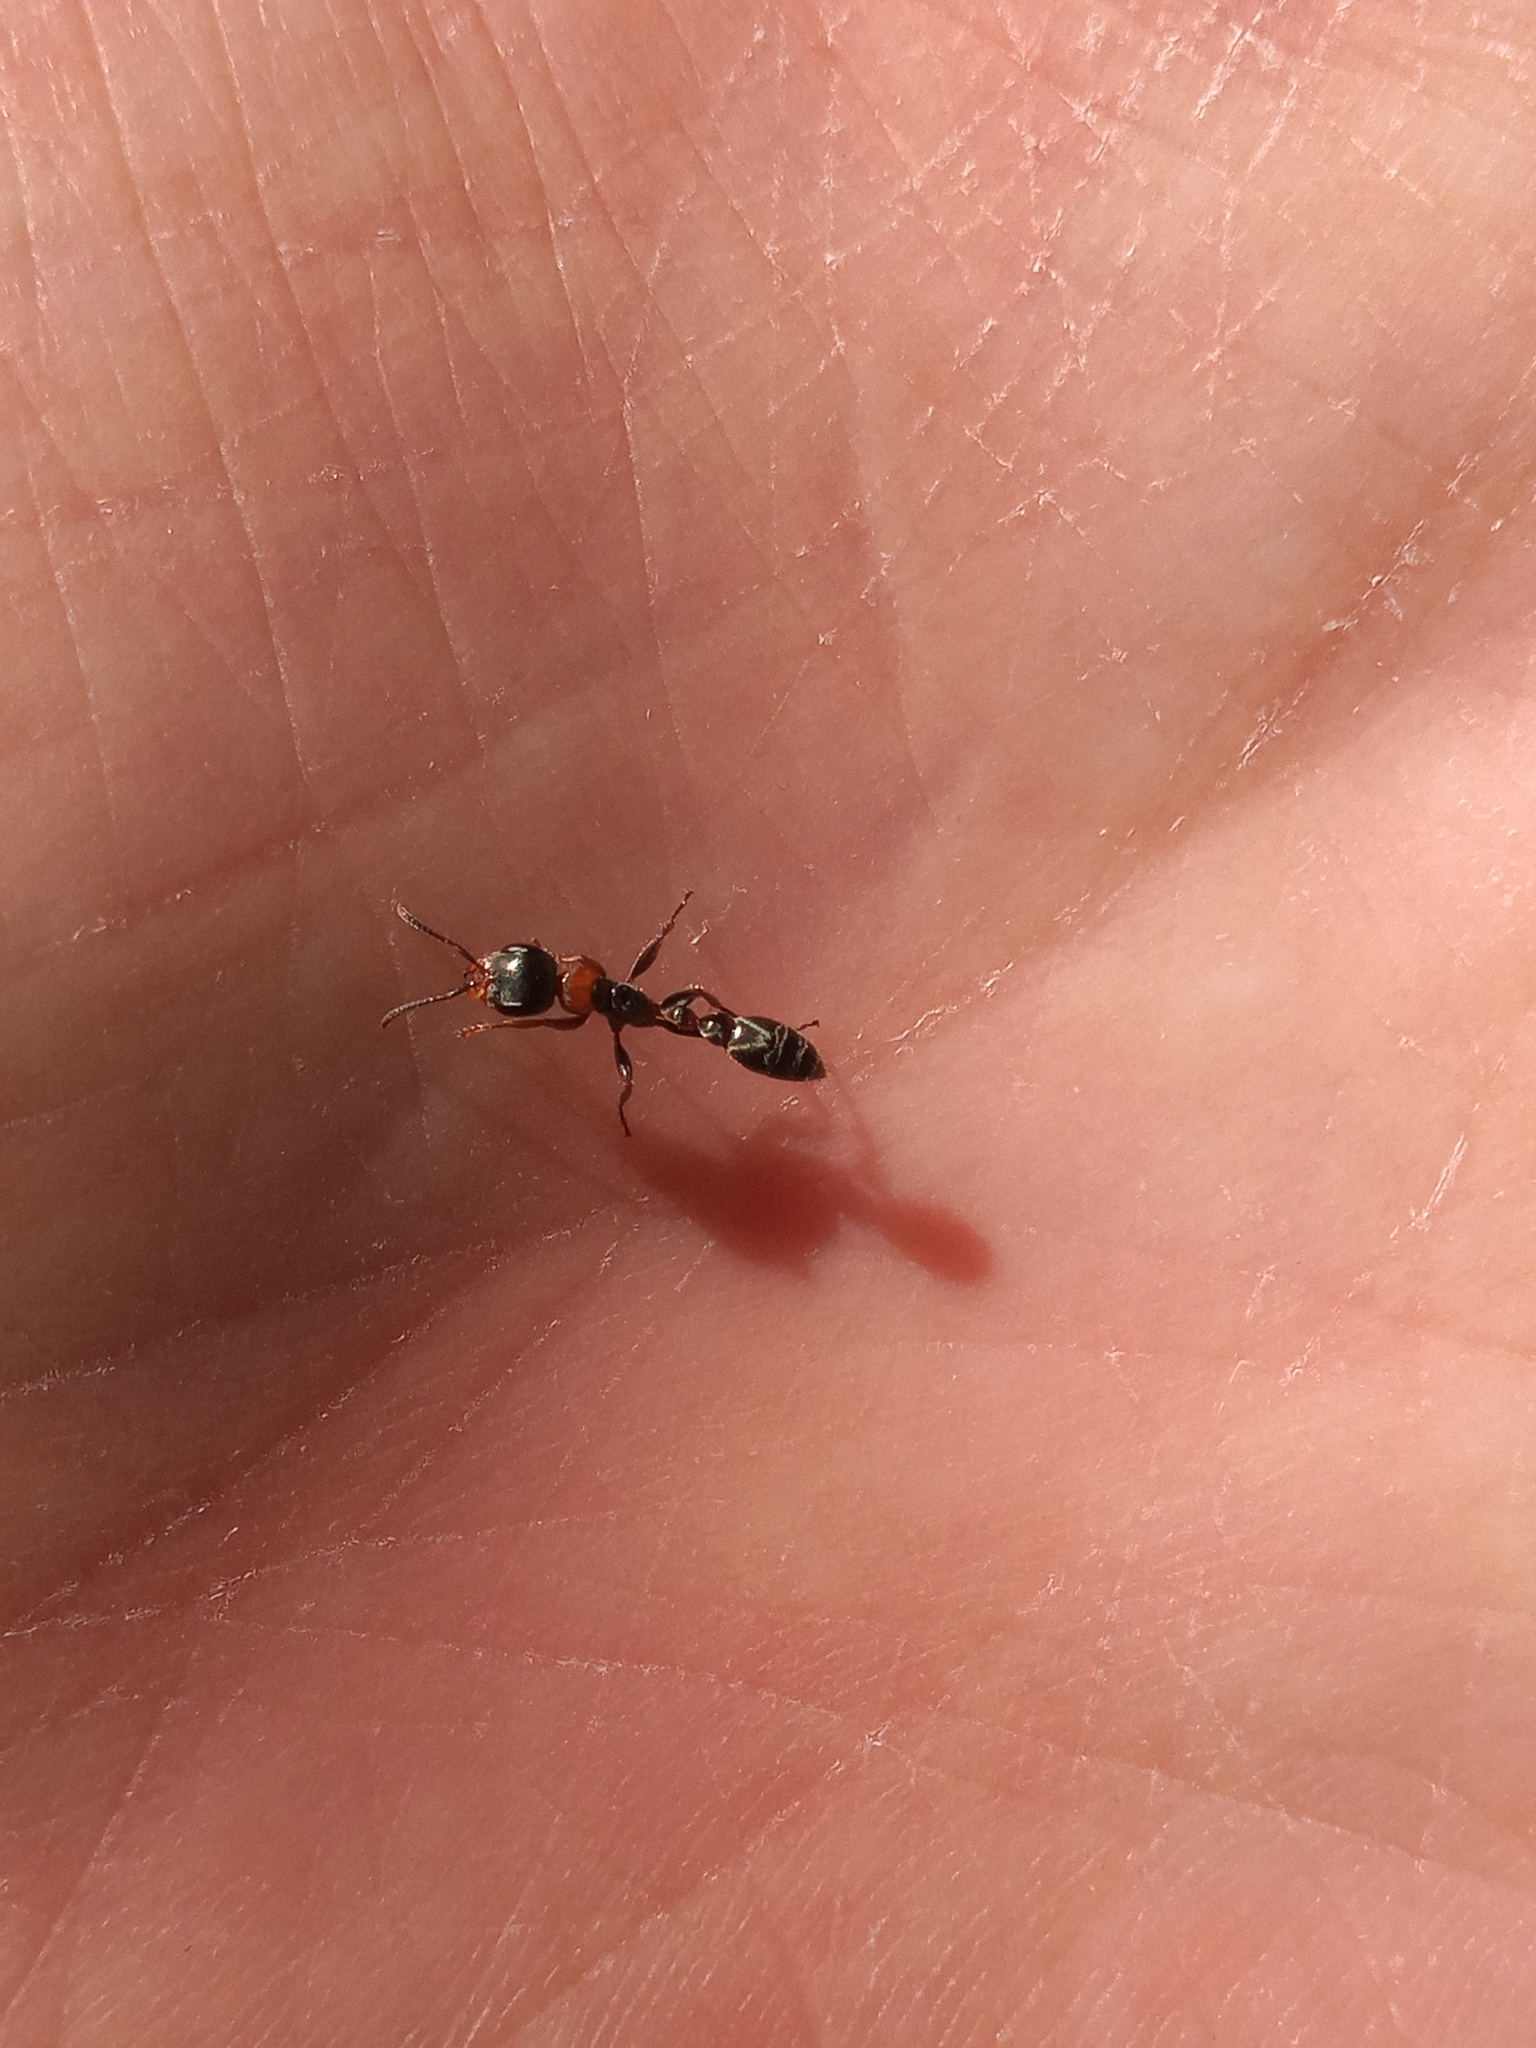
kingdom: Animalia
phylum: Arthropoda
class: Insecta
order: Hymenoptera
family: Formicidae
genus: Pseudomyrmex
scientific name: Pseudomyrmex gracilis
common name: Graceful twig ant
